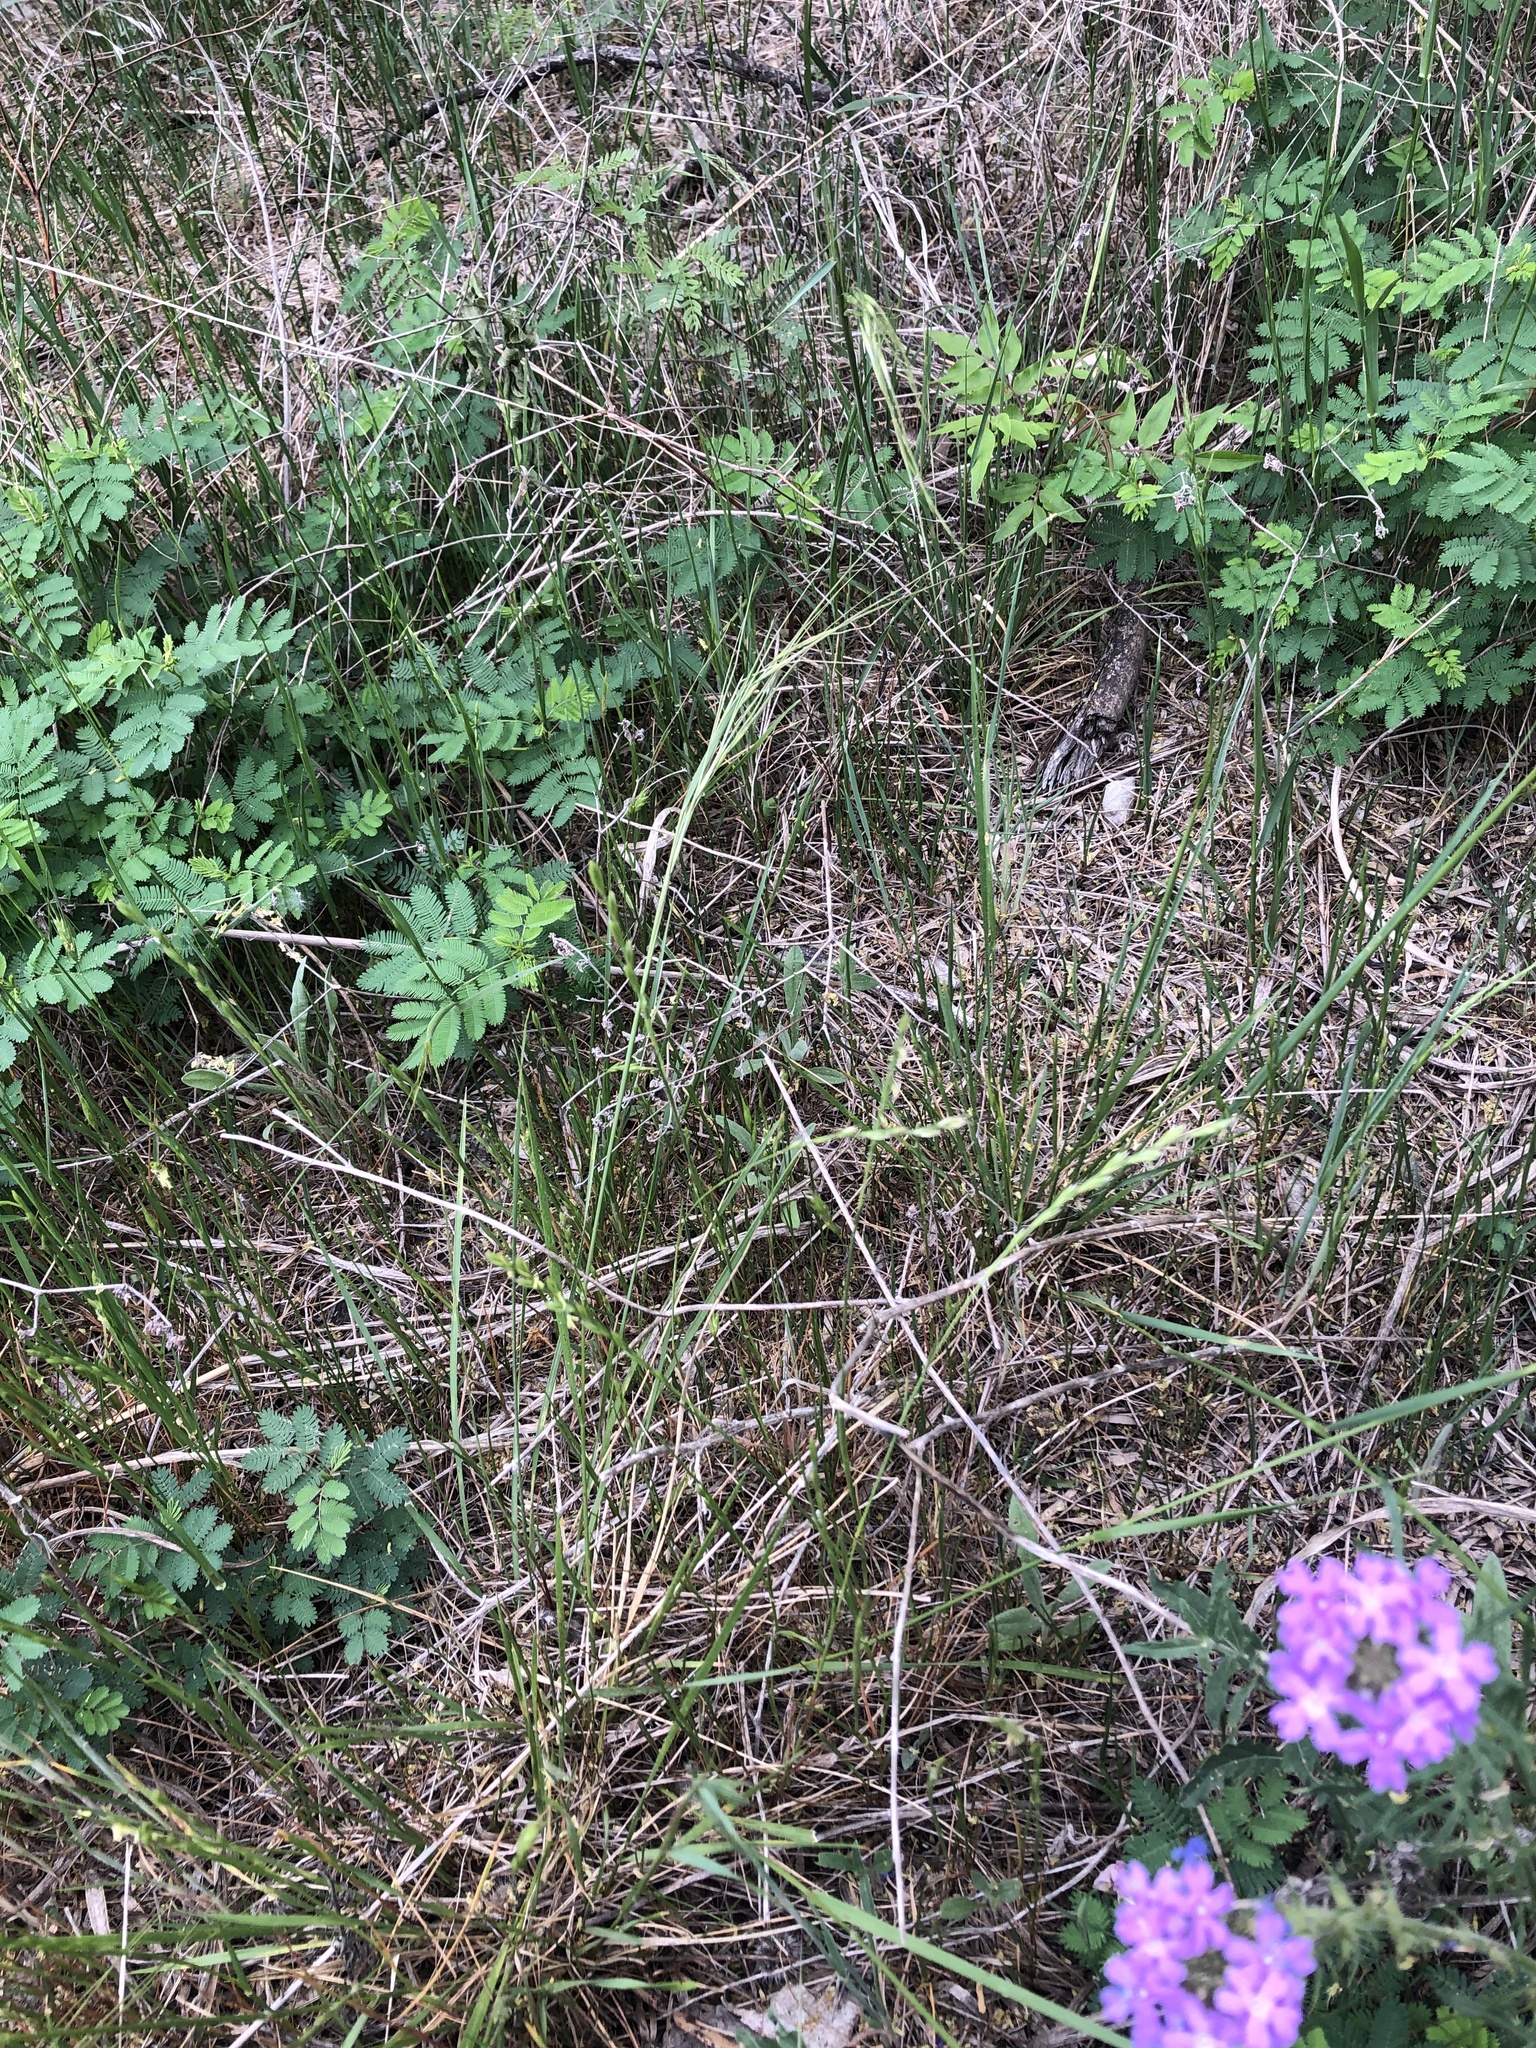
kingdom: Plantae
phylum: Tracheophyta
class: Liliopsida
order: Poales
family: Poaceae
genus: Nassella
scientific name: Nassella leucotricha
